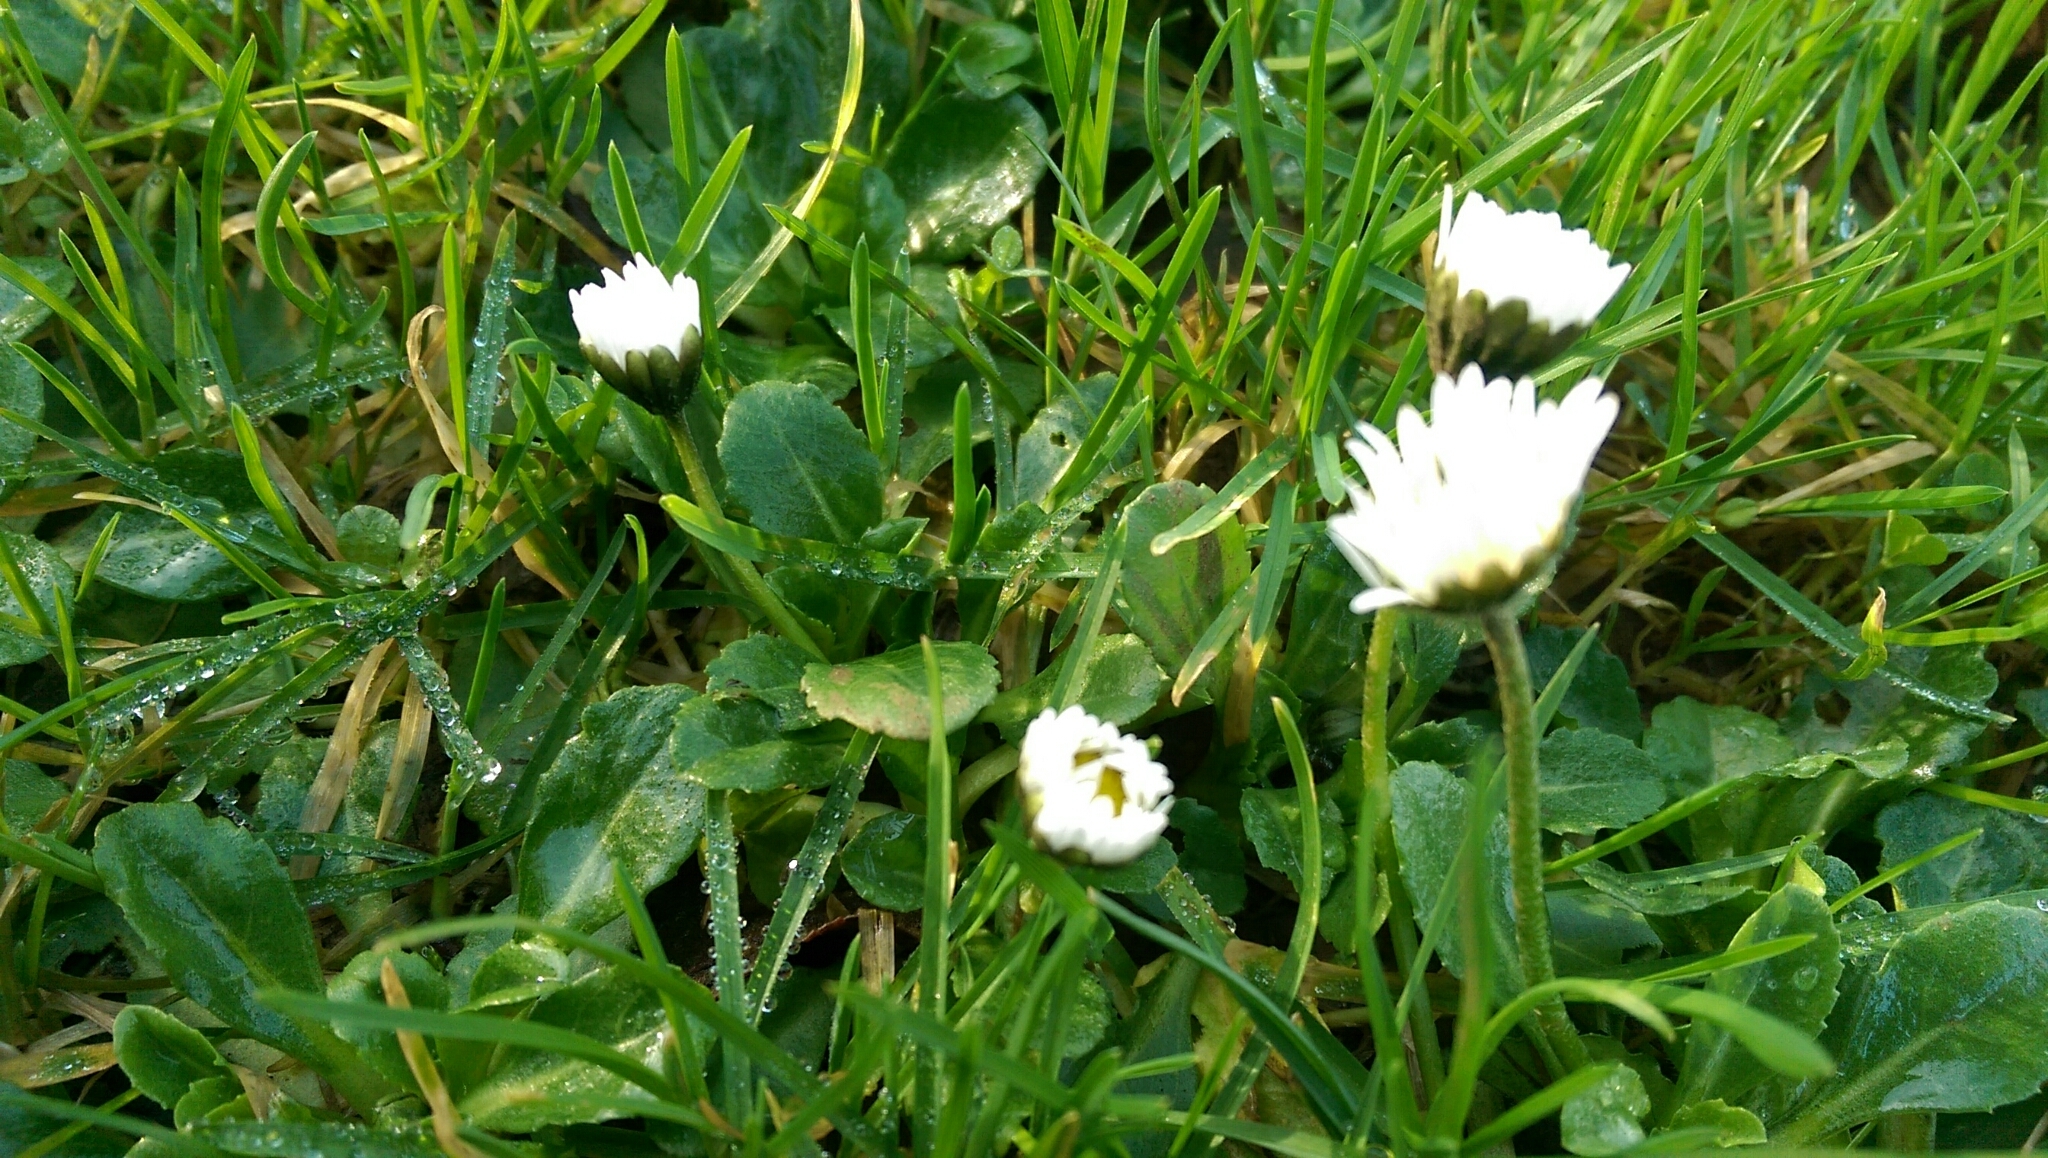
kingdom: Plantae
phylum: Tracheophyta
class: Magnoliopsida
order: Asterales
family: Asteraceae
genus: Bellis
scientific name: Bellis perennis
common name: Lawndaisy
